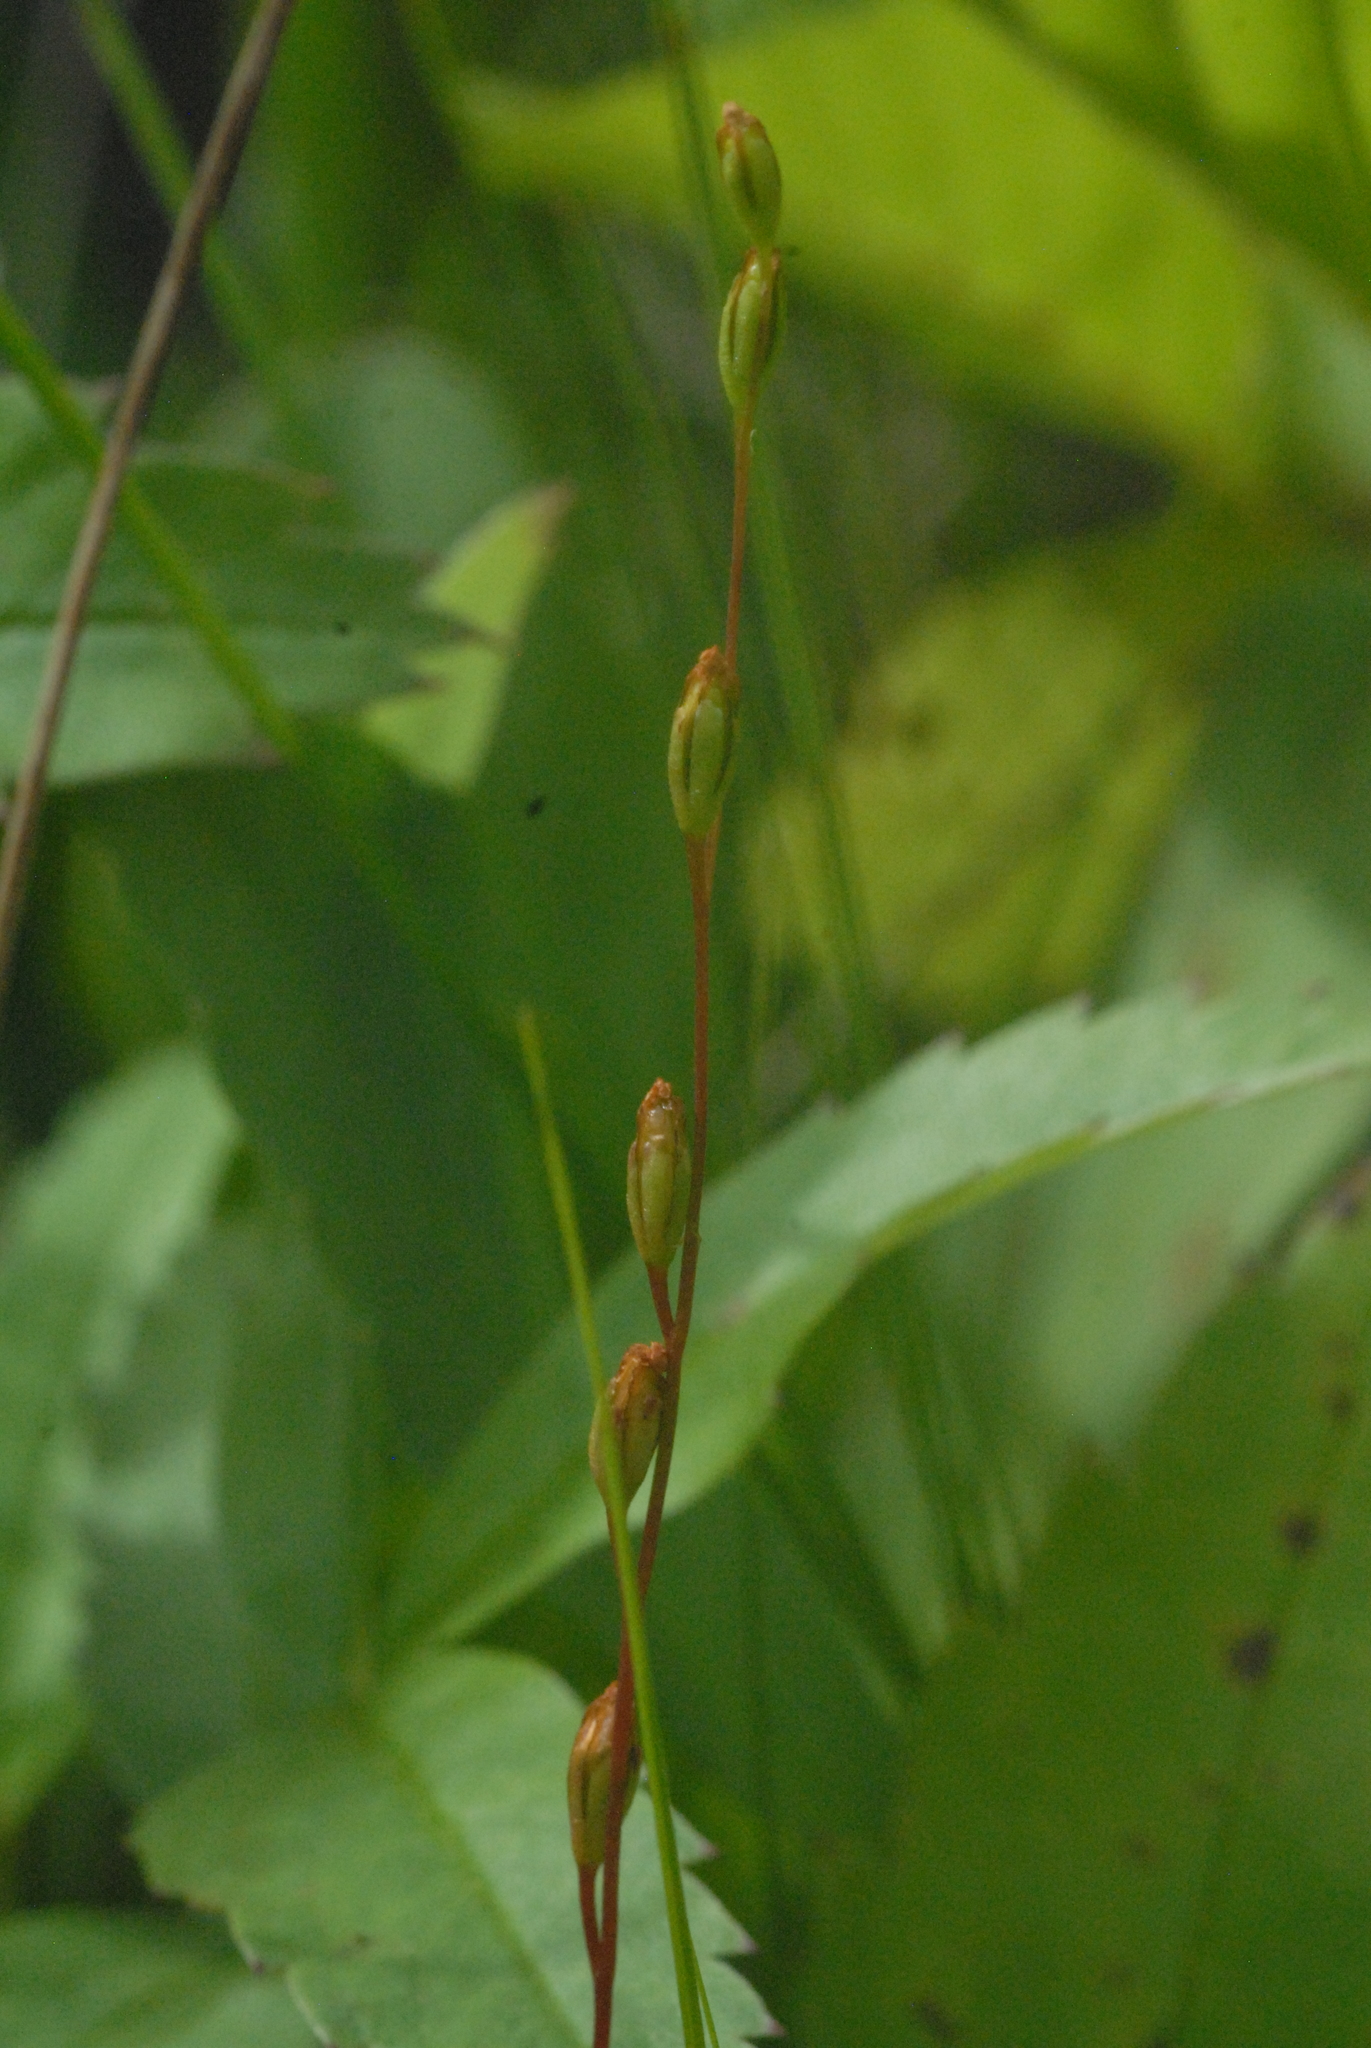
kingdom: Plantae
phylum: Tracheophyta
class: Liliopsida
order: Alismatales
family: Juncaginaceae
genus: Triglochin
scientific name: Triglochin palustris
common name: Marsh arrowgrass
